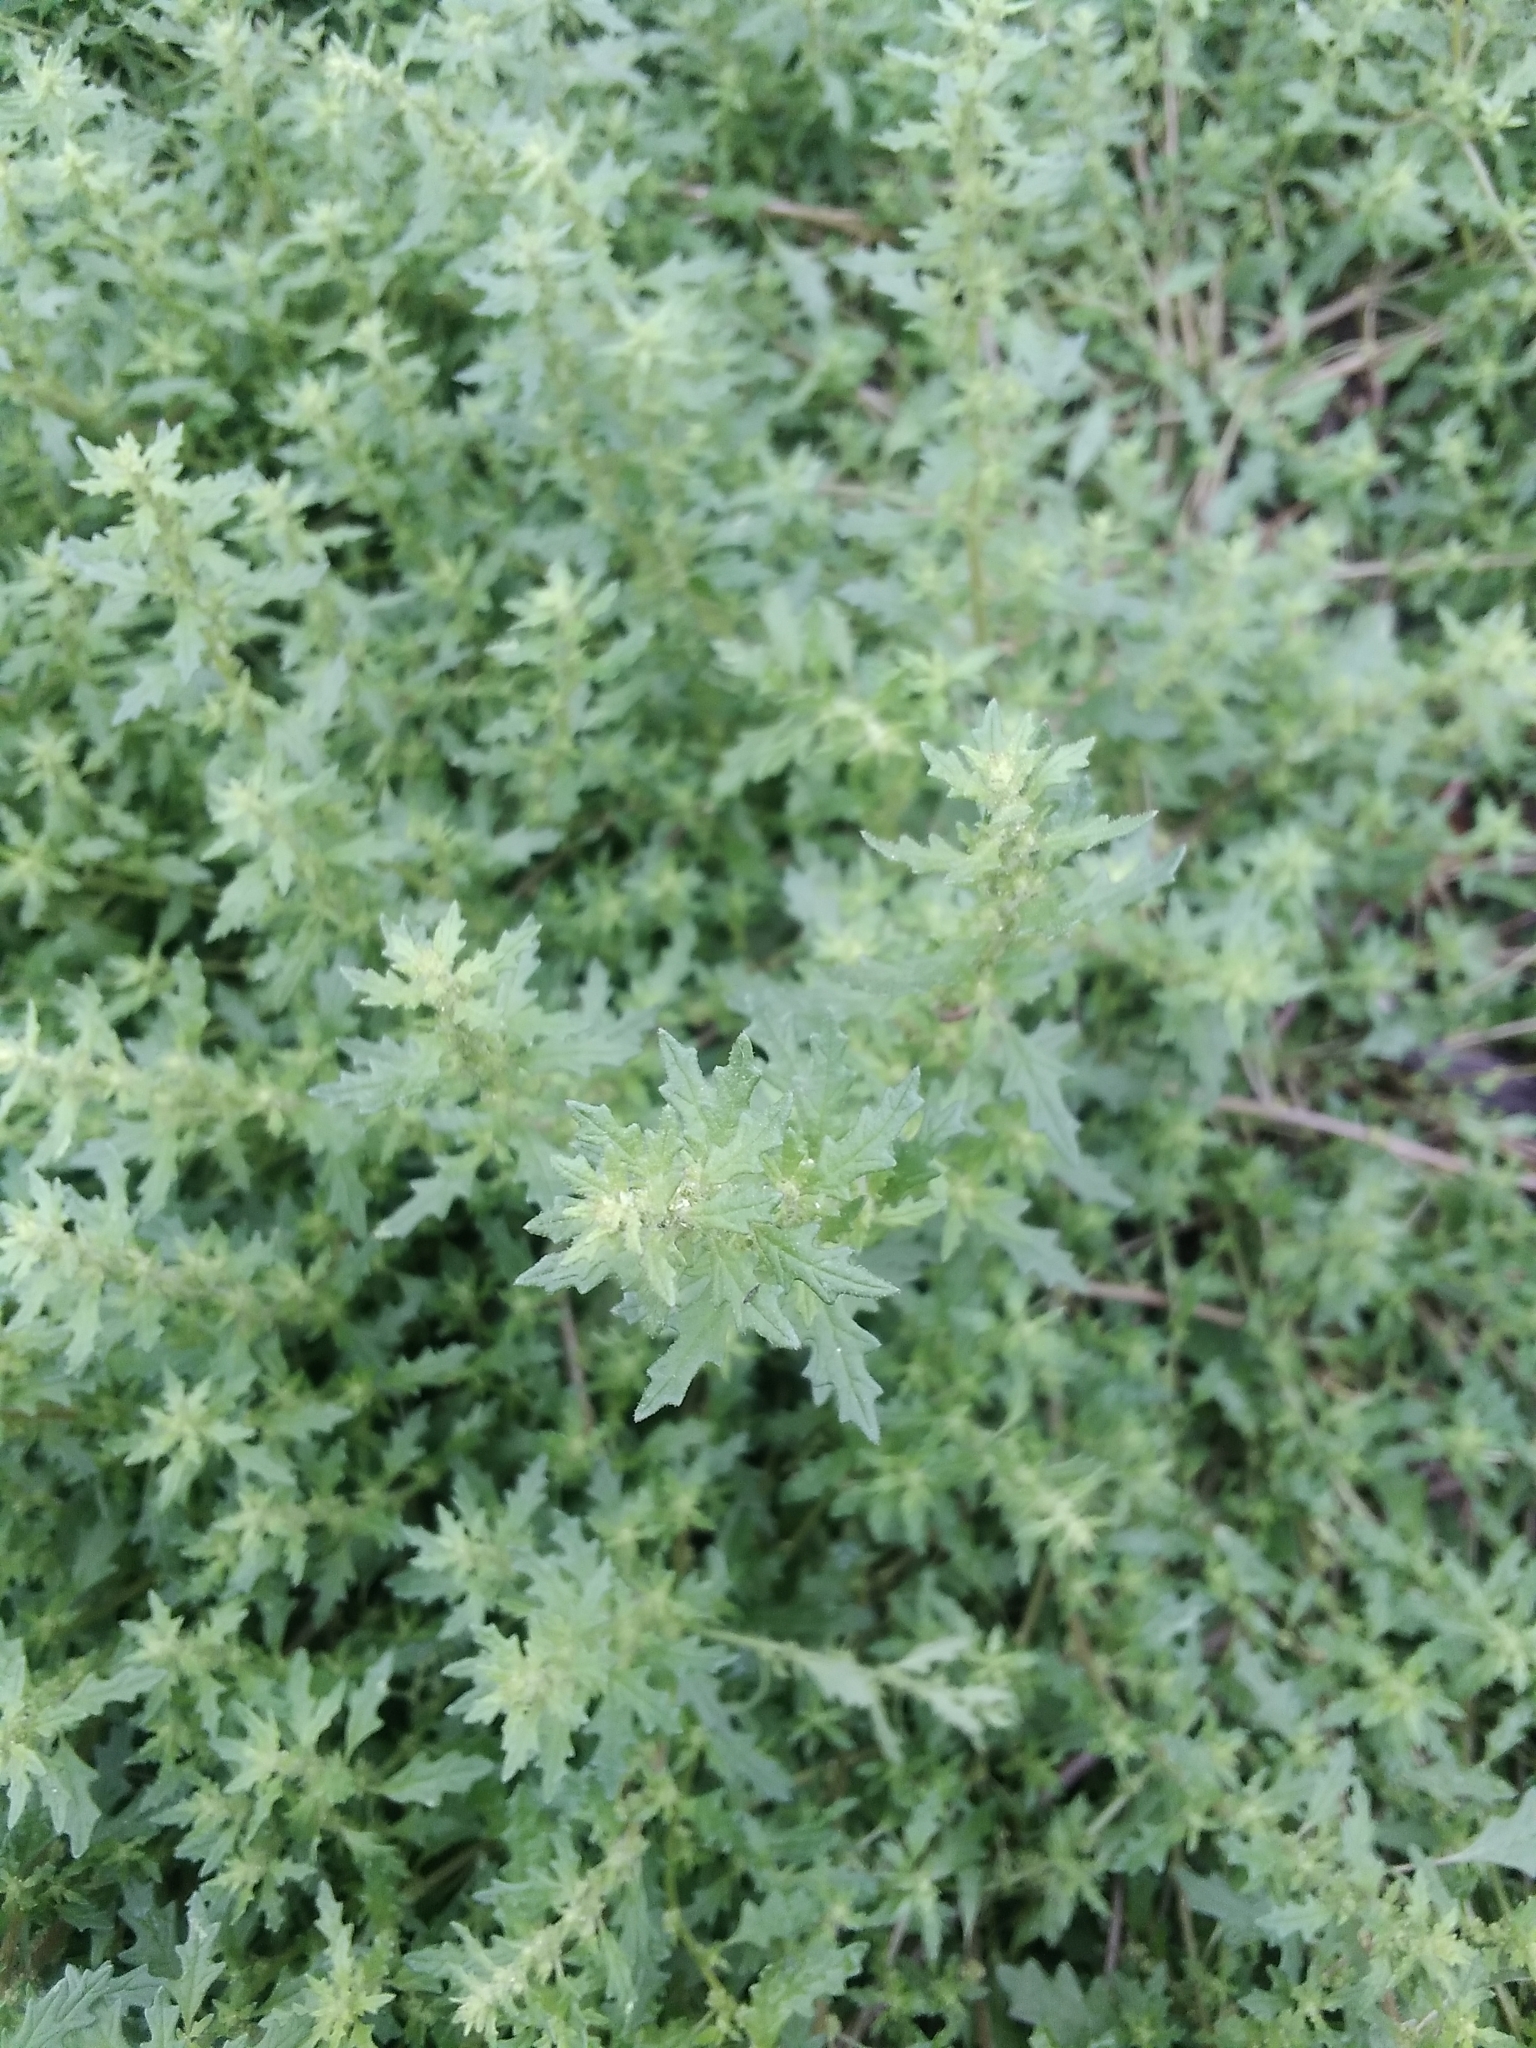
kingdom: Plantae
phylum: Tracheophyta
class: Magnoliopsida
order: Caryophyllales
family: Amaranthaceae
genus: Dysphania
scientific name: Dysphania pumilio
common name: Clammy goosefoot
